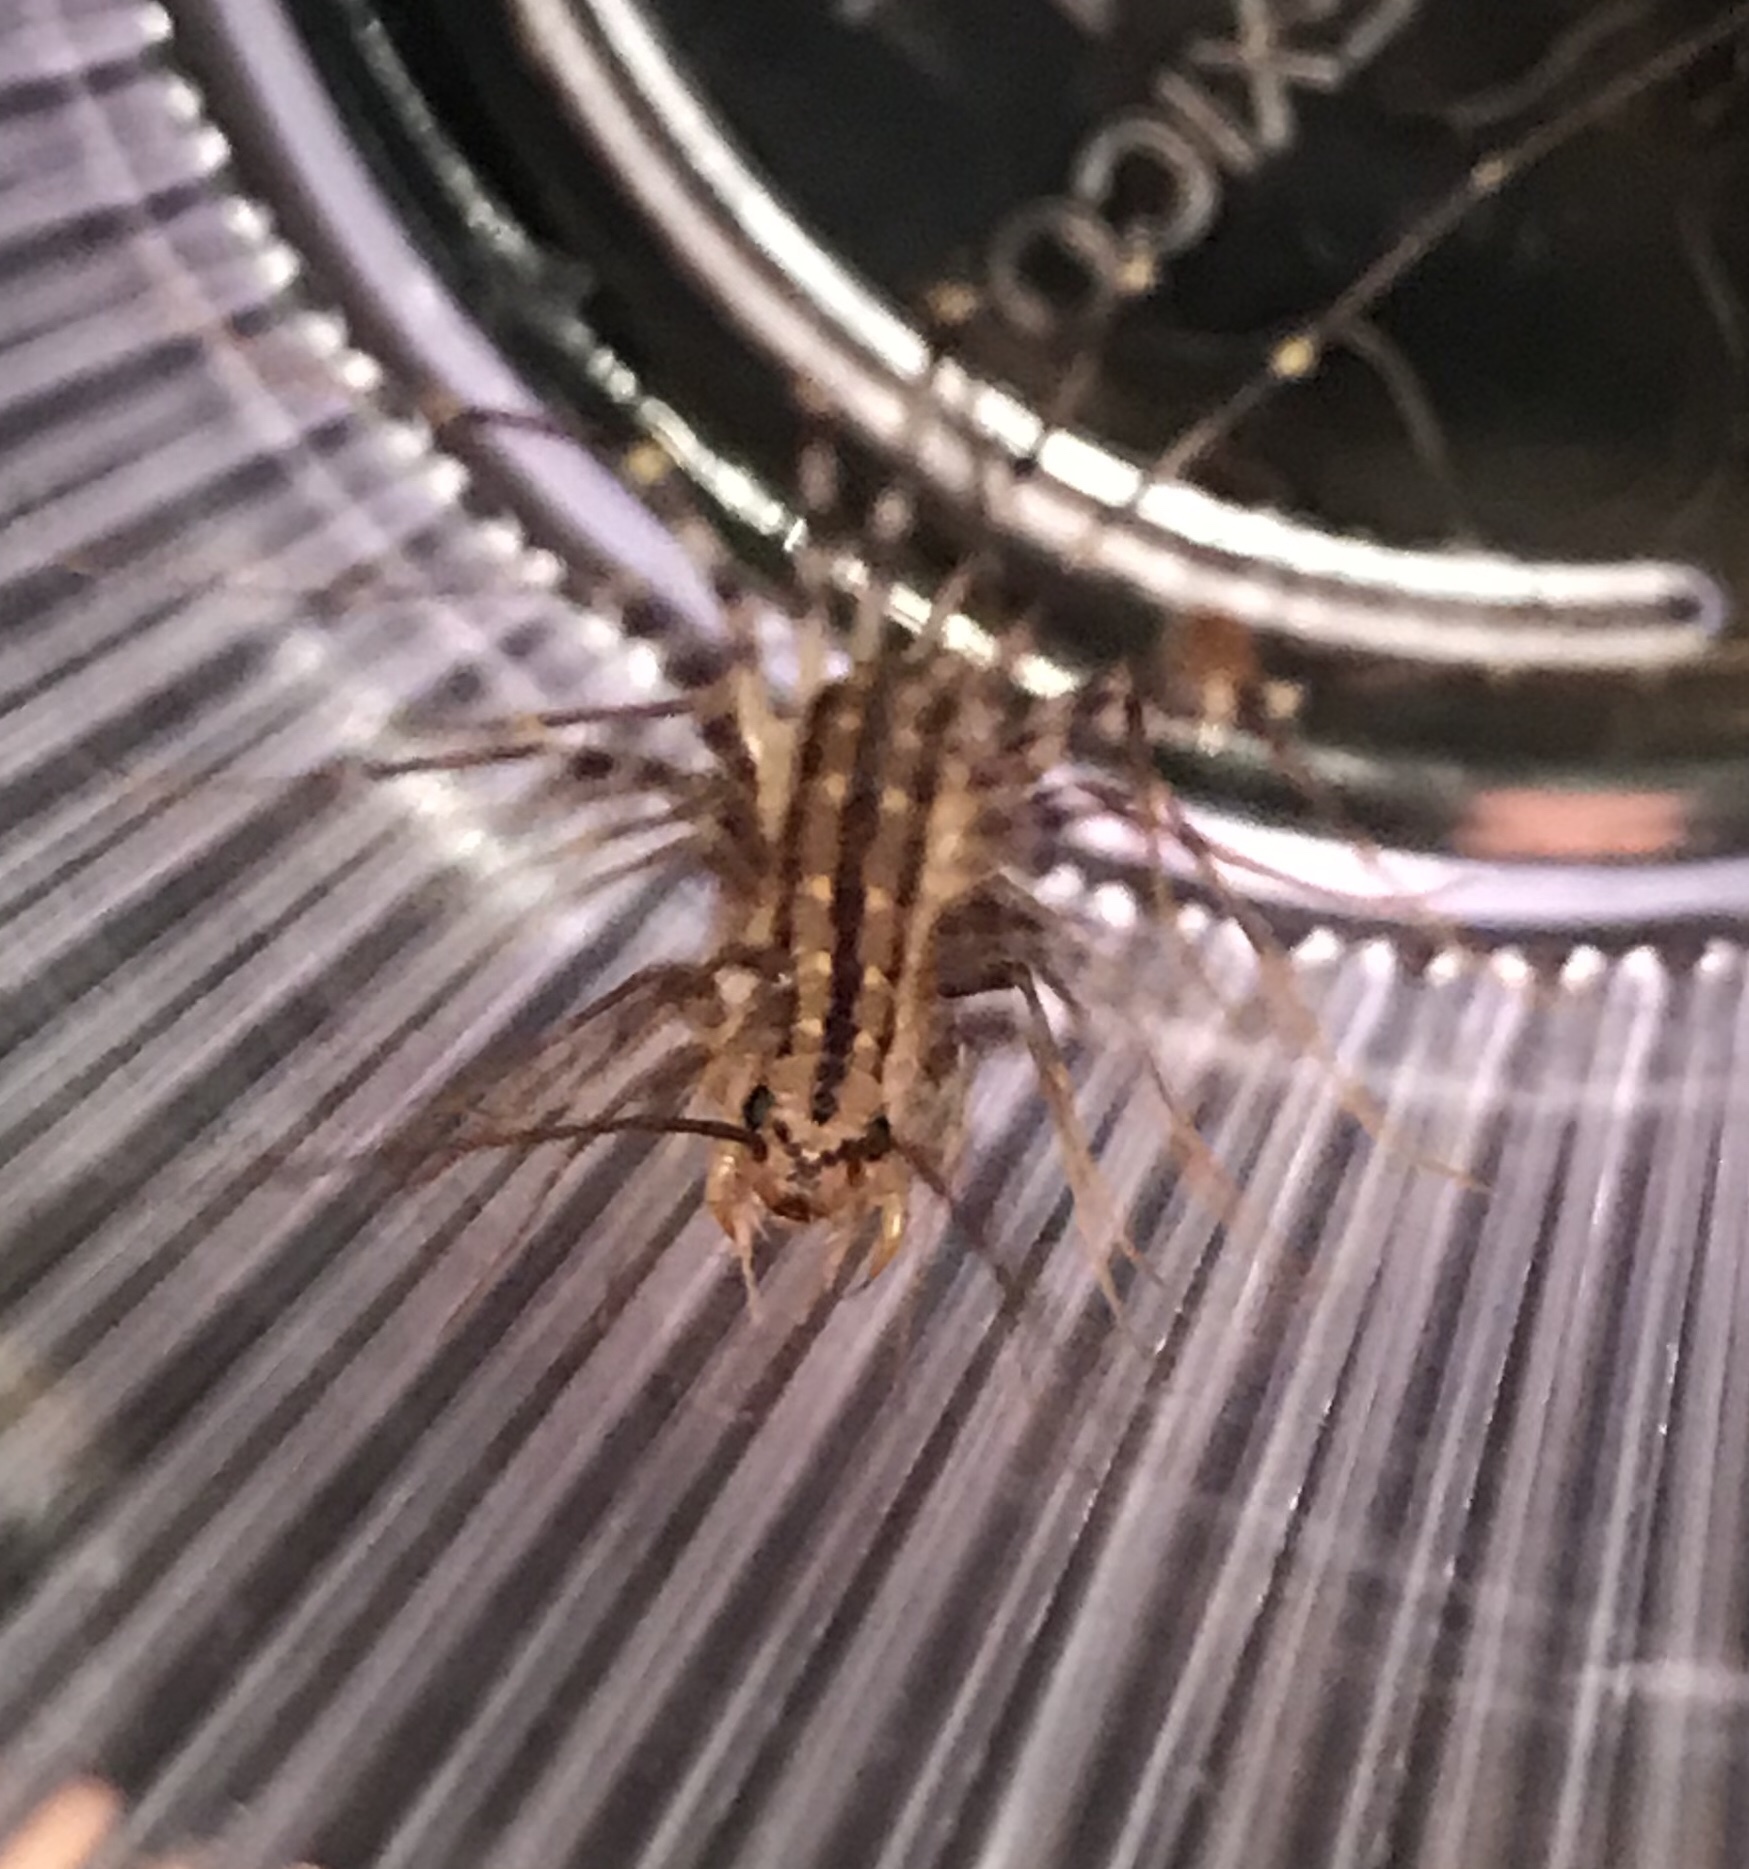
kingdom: Animalia
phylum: Arthropoda
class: Chilopoda
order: Scutigeromorpha
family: Scutigeridae
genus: Scutigera
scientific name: Scutigera coleoptrata
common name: House centipede
